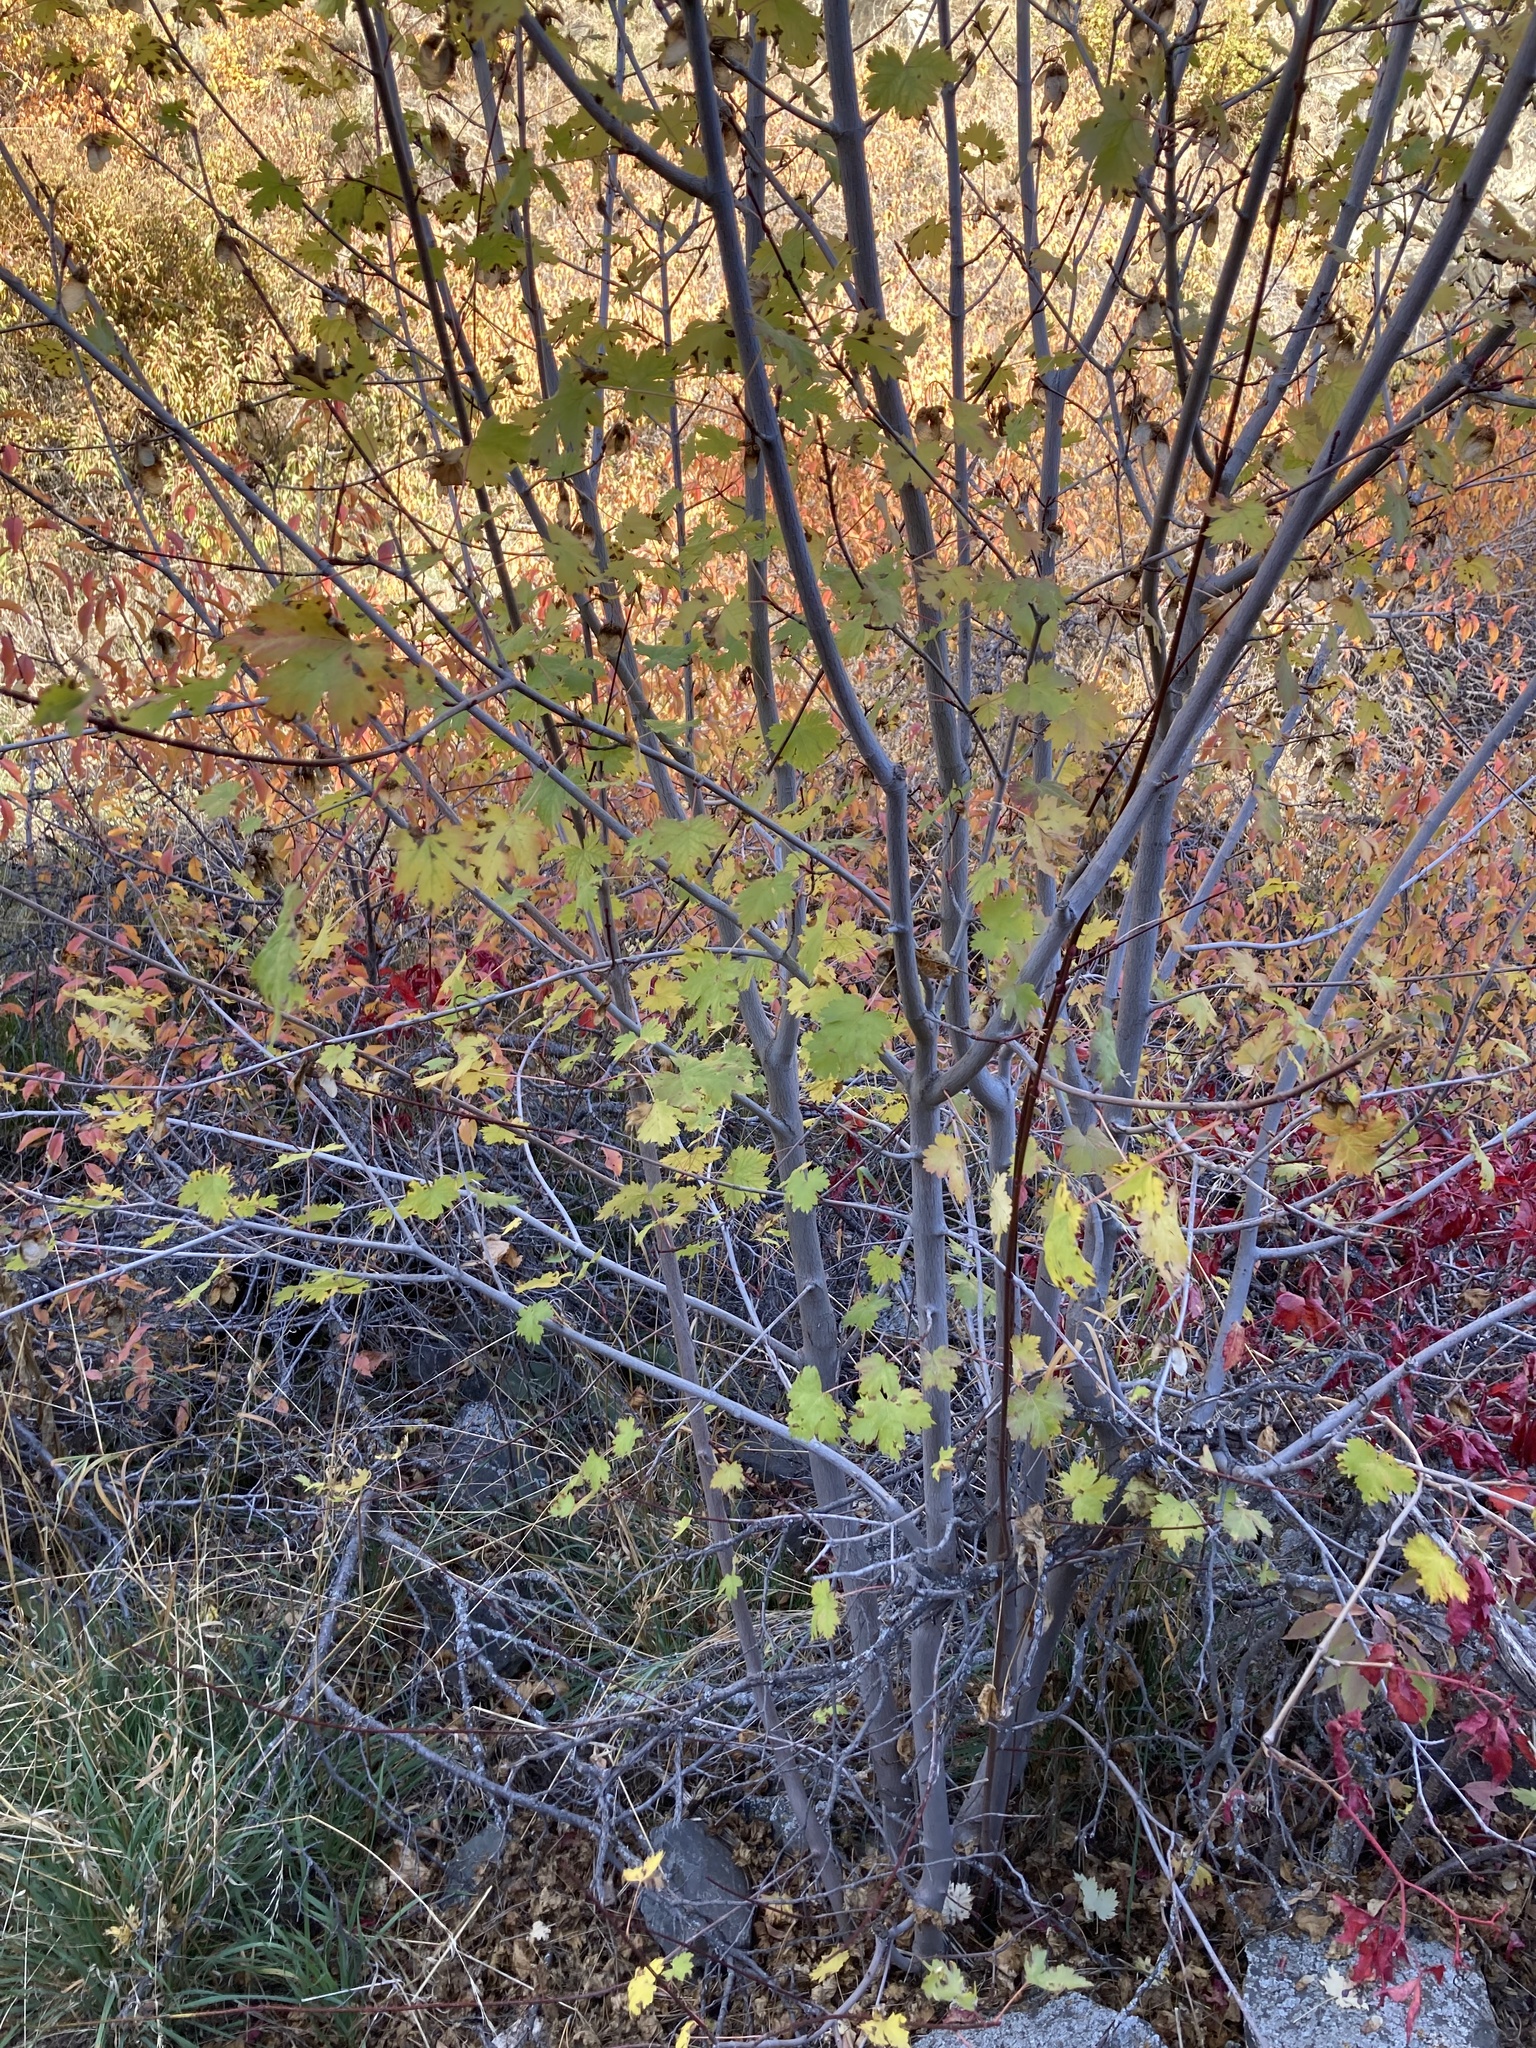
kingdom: Plantae
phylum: Tracheophyta
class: Magnoliopsida
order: Sapindales
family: Sapindaceae
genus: Acer
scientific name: Acer glabrum
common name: Rocky mountain maple
